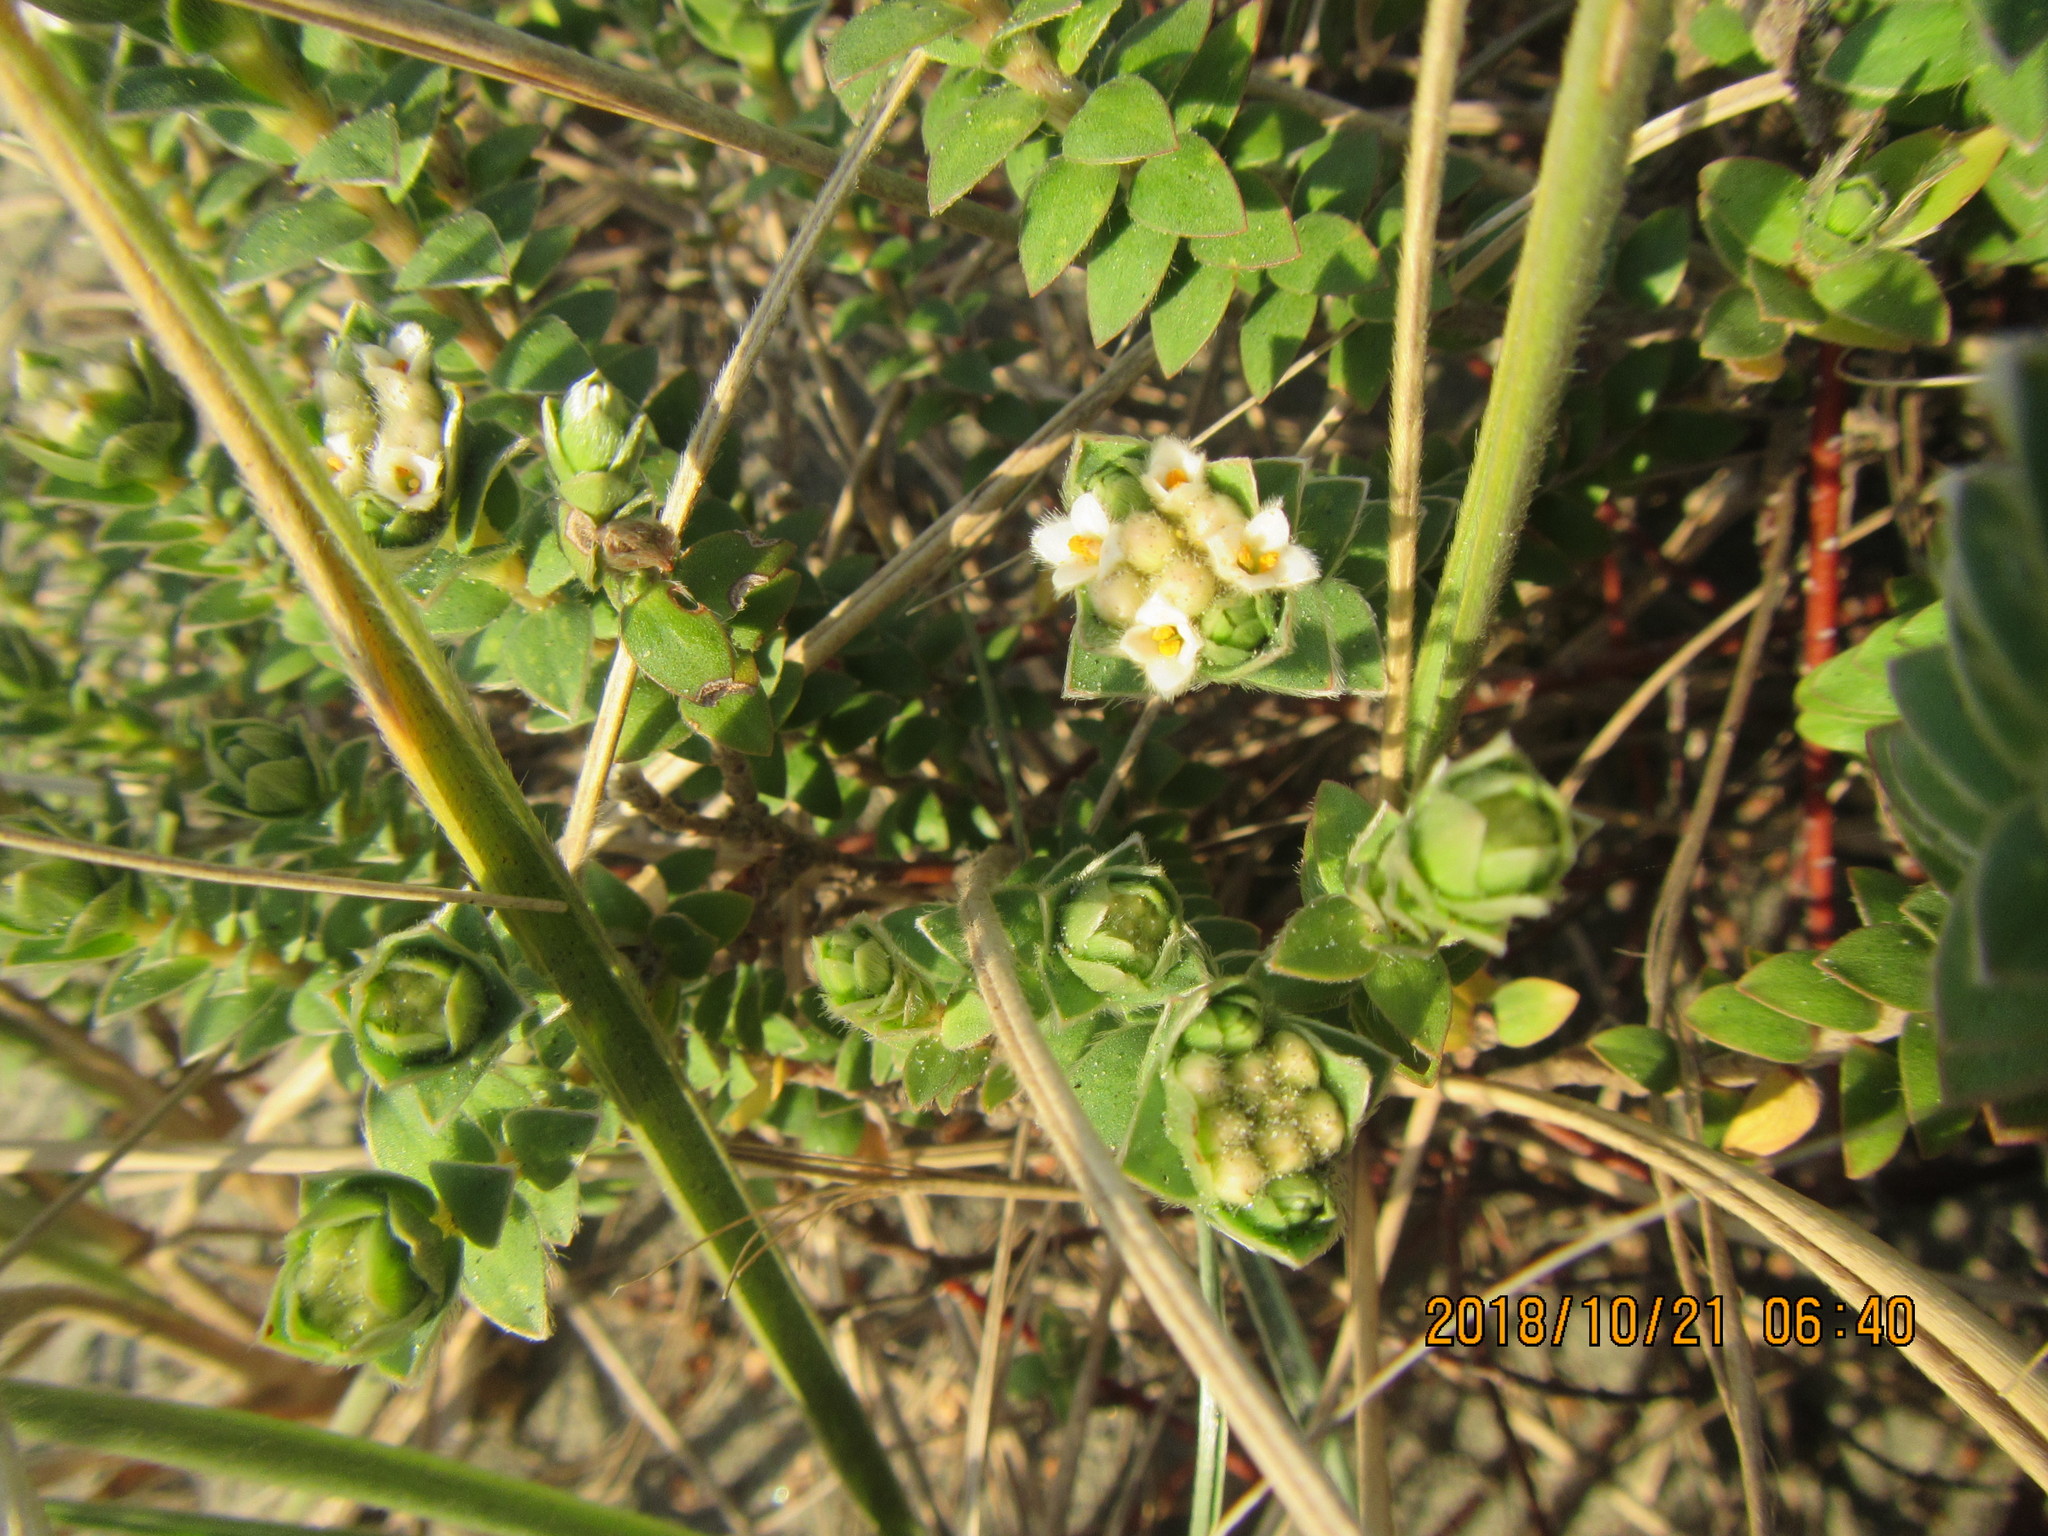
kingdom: Plantae
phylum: Tracheophyta
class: Magnoliopsida
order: Malvales
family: Thymelaeaceae
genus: Pimelea
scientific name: Pimelea villosa
